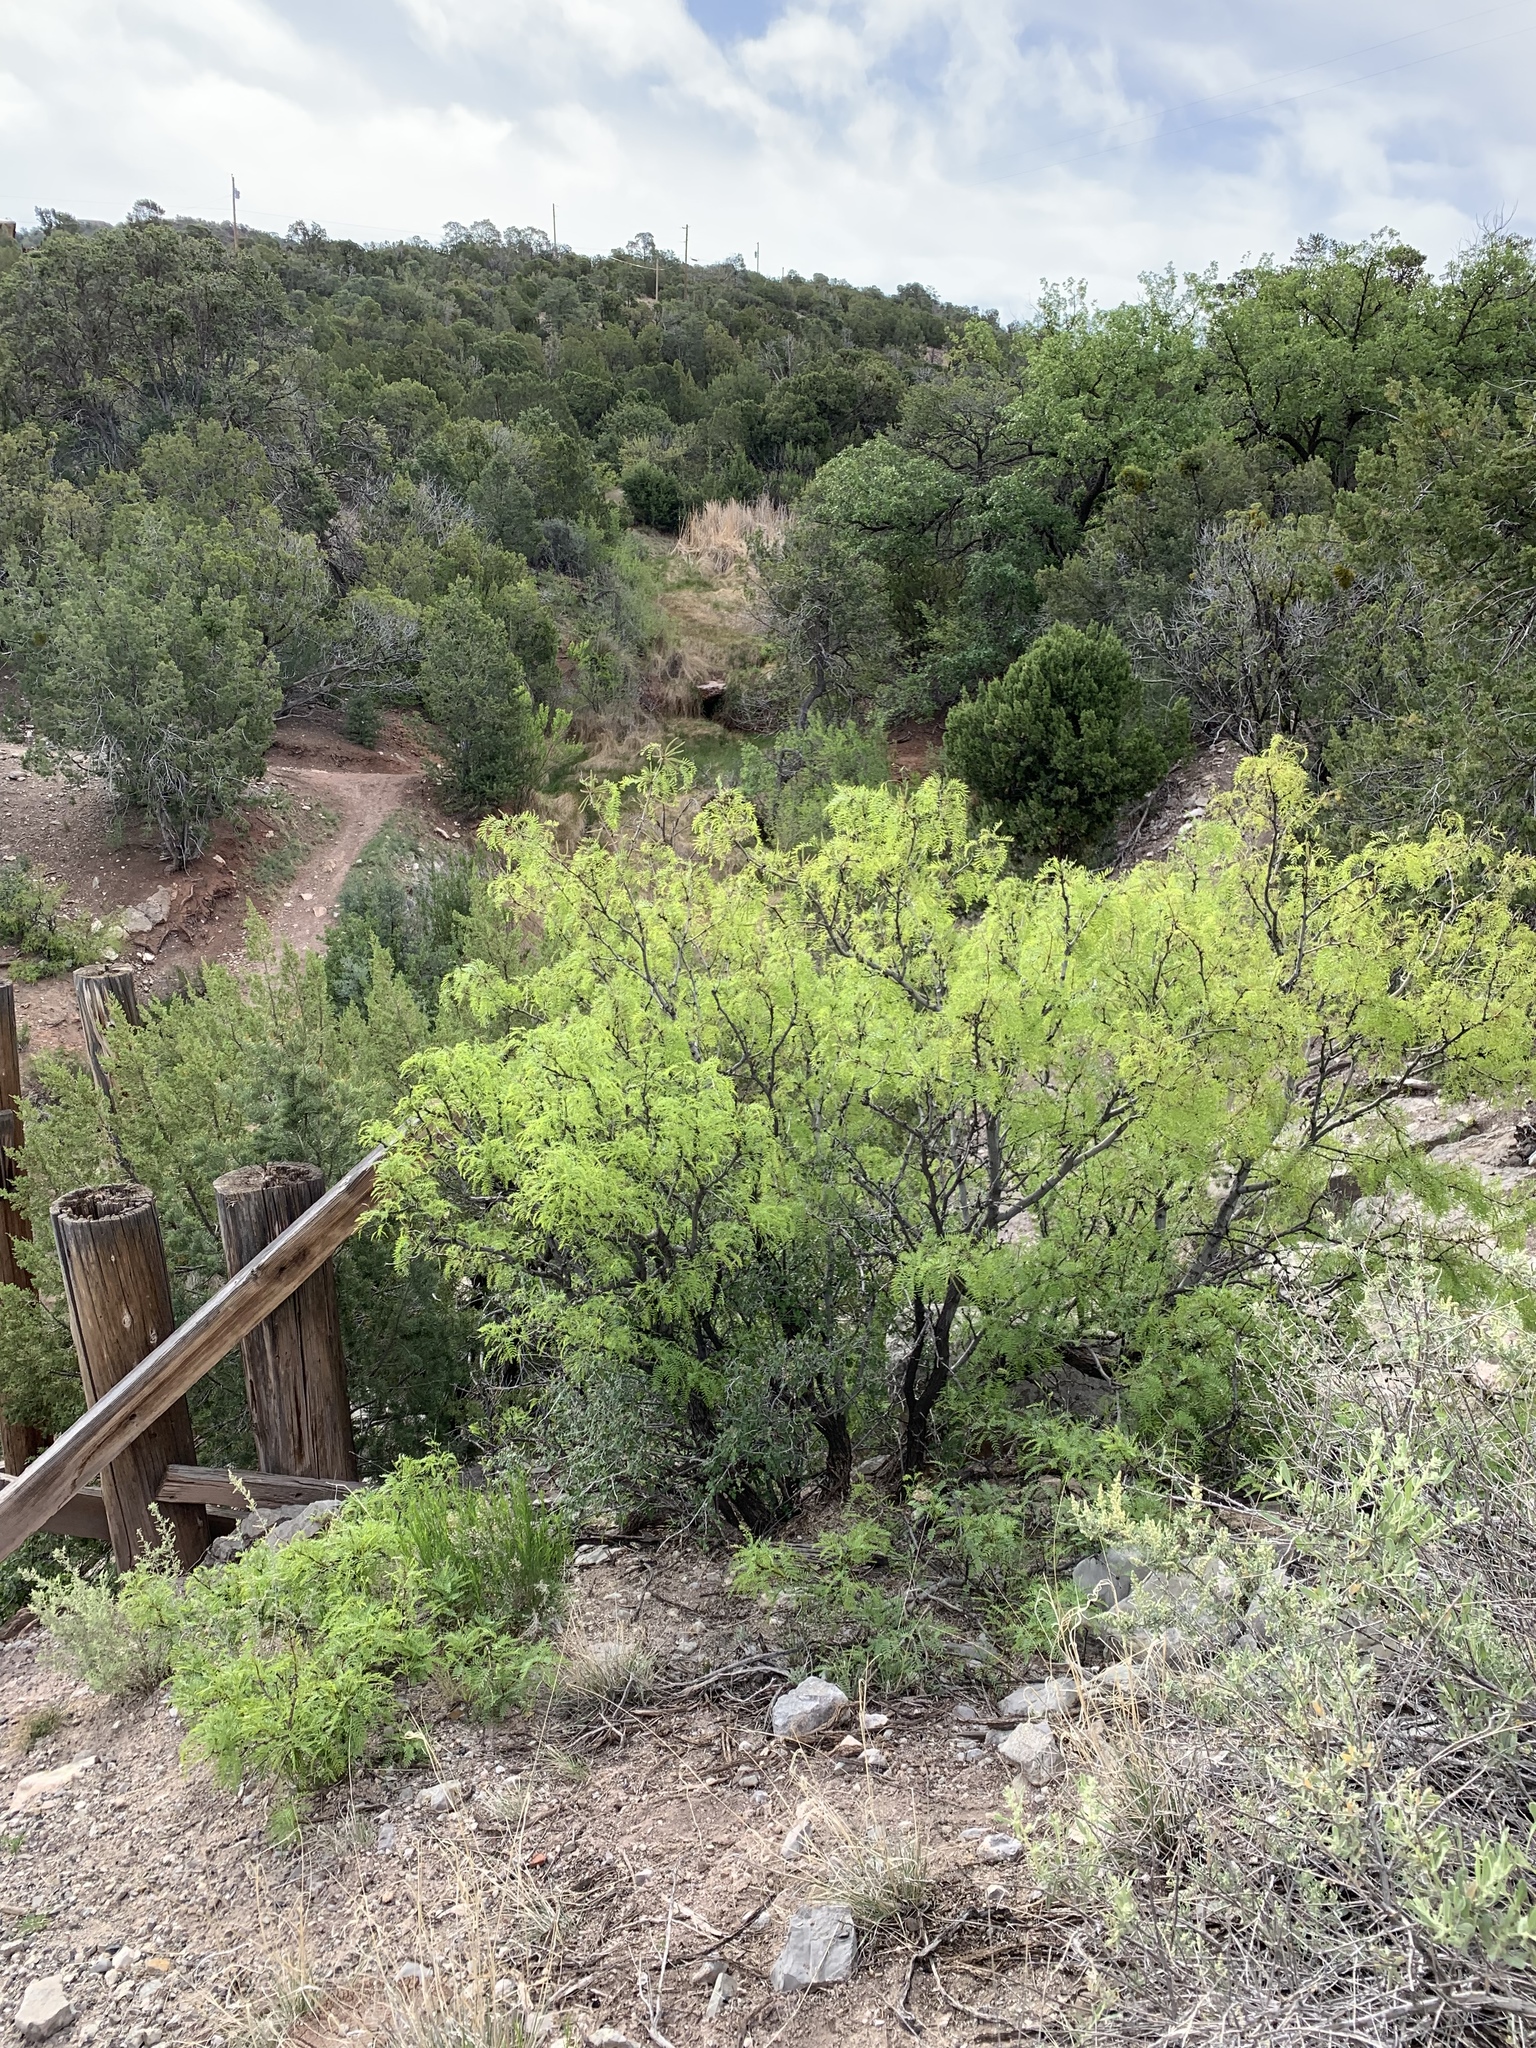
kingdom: Plantae
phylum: Tracheophyta
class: Magnoliopsida
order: Fabales
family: Fabaceae
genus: Prosopis
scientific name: Prosopis glandulosa
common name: Honey mesquite
